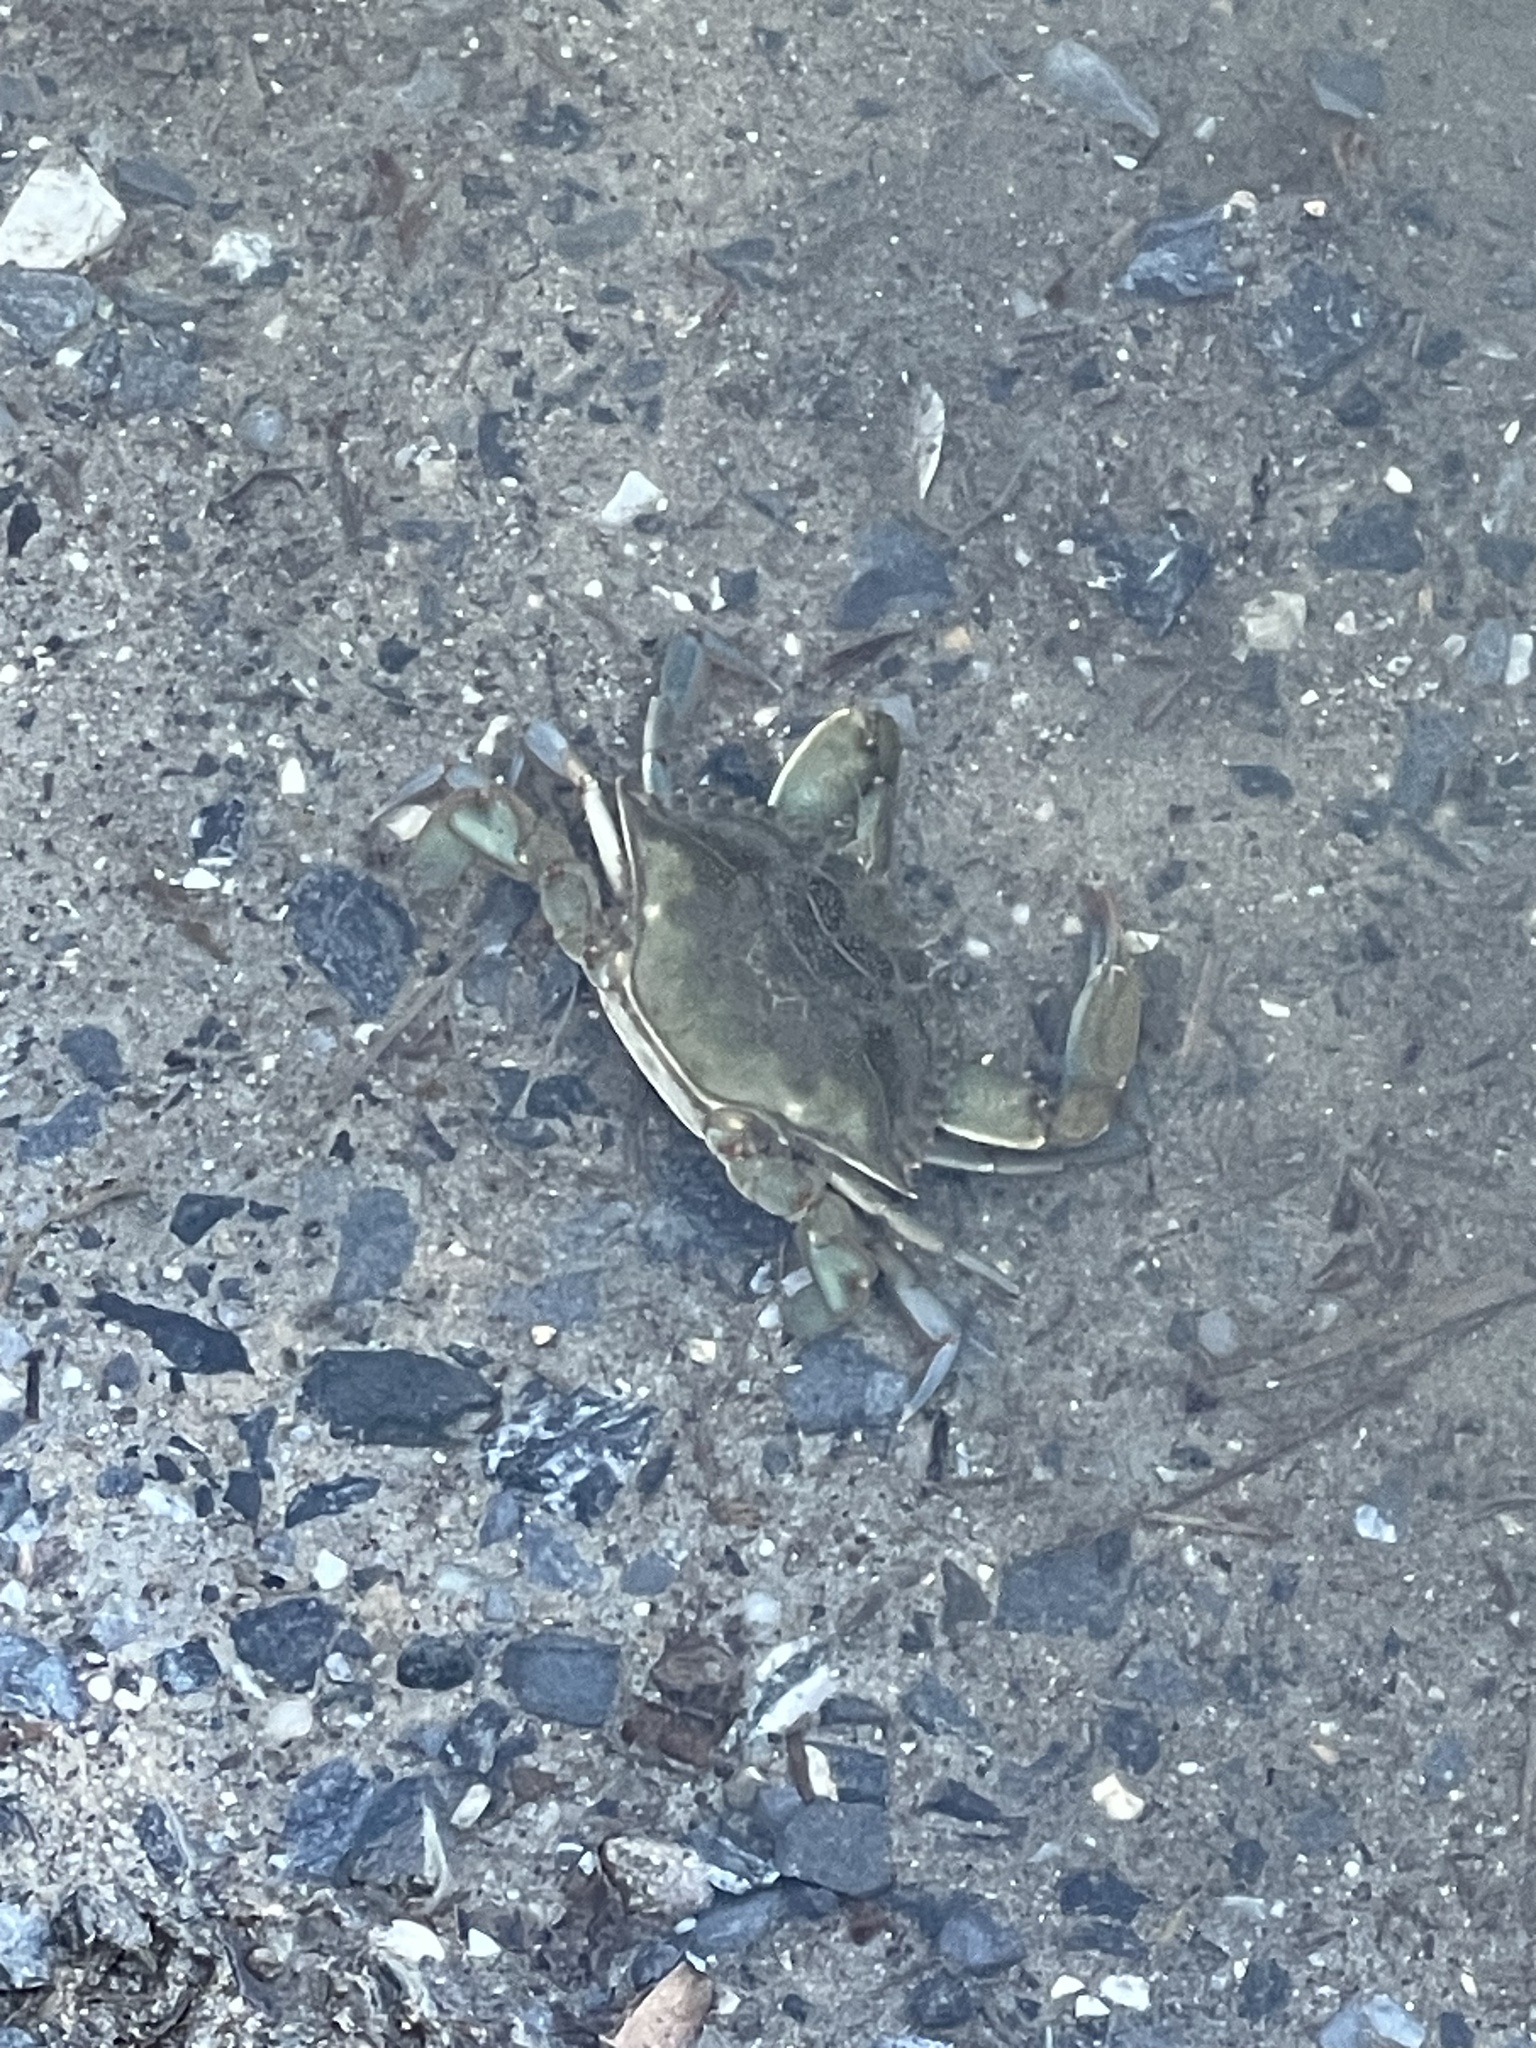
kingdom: Animalia
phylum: Arthropoda
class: Malacostraca
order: Decapoda
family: Portunidae
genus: Callinectes
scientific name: Callinectes sapidus
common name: Blue crab
